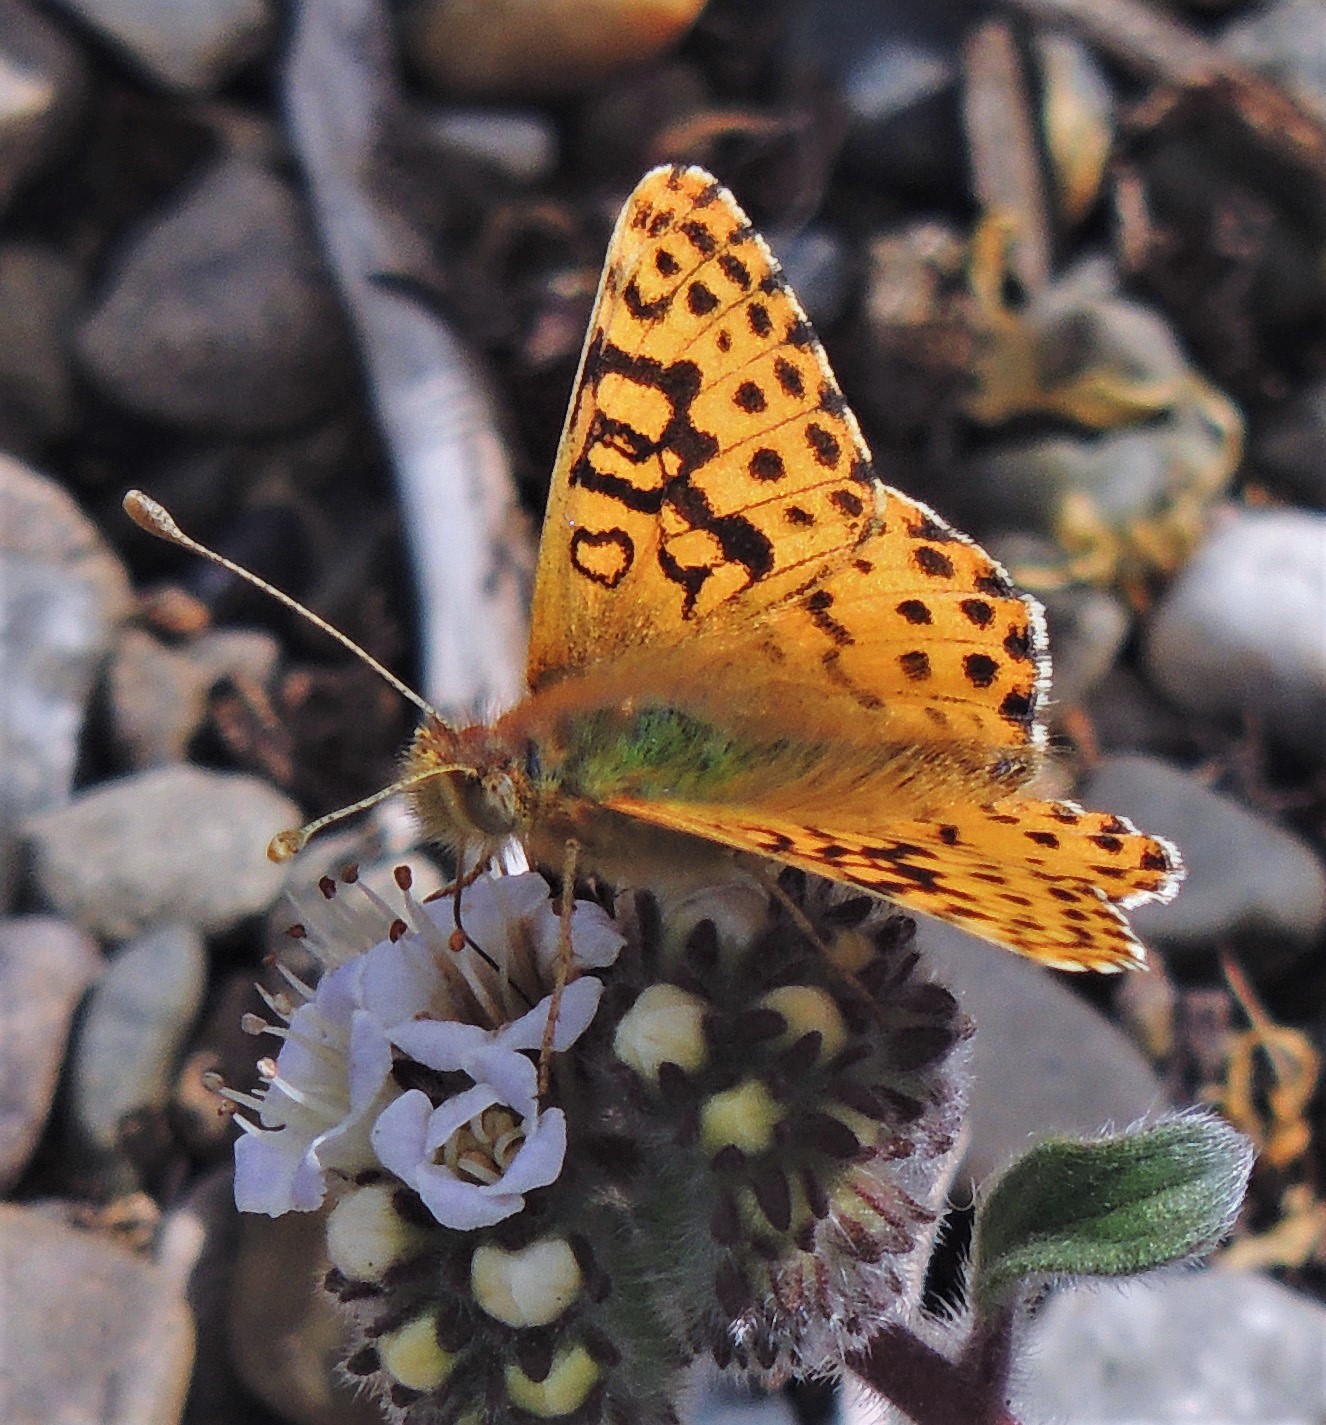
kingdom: Animalia
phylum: Arthropoda
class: Insecta
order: Lepidoptera
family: Nymphalidae
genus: Issoria
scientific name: Issoria Yramea lathonoides
